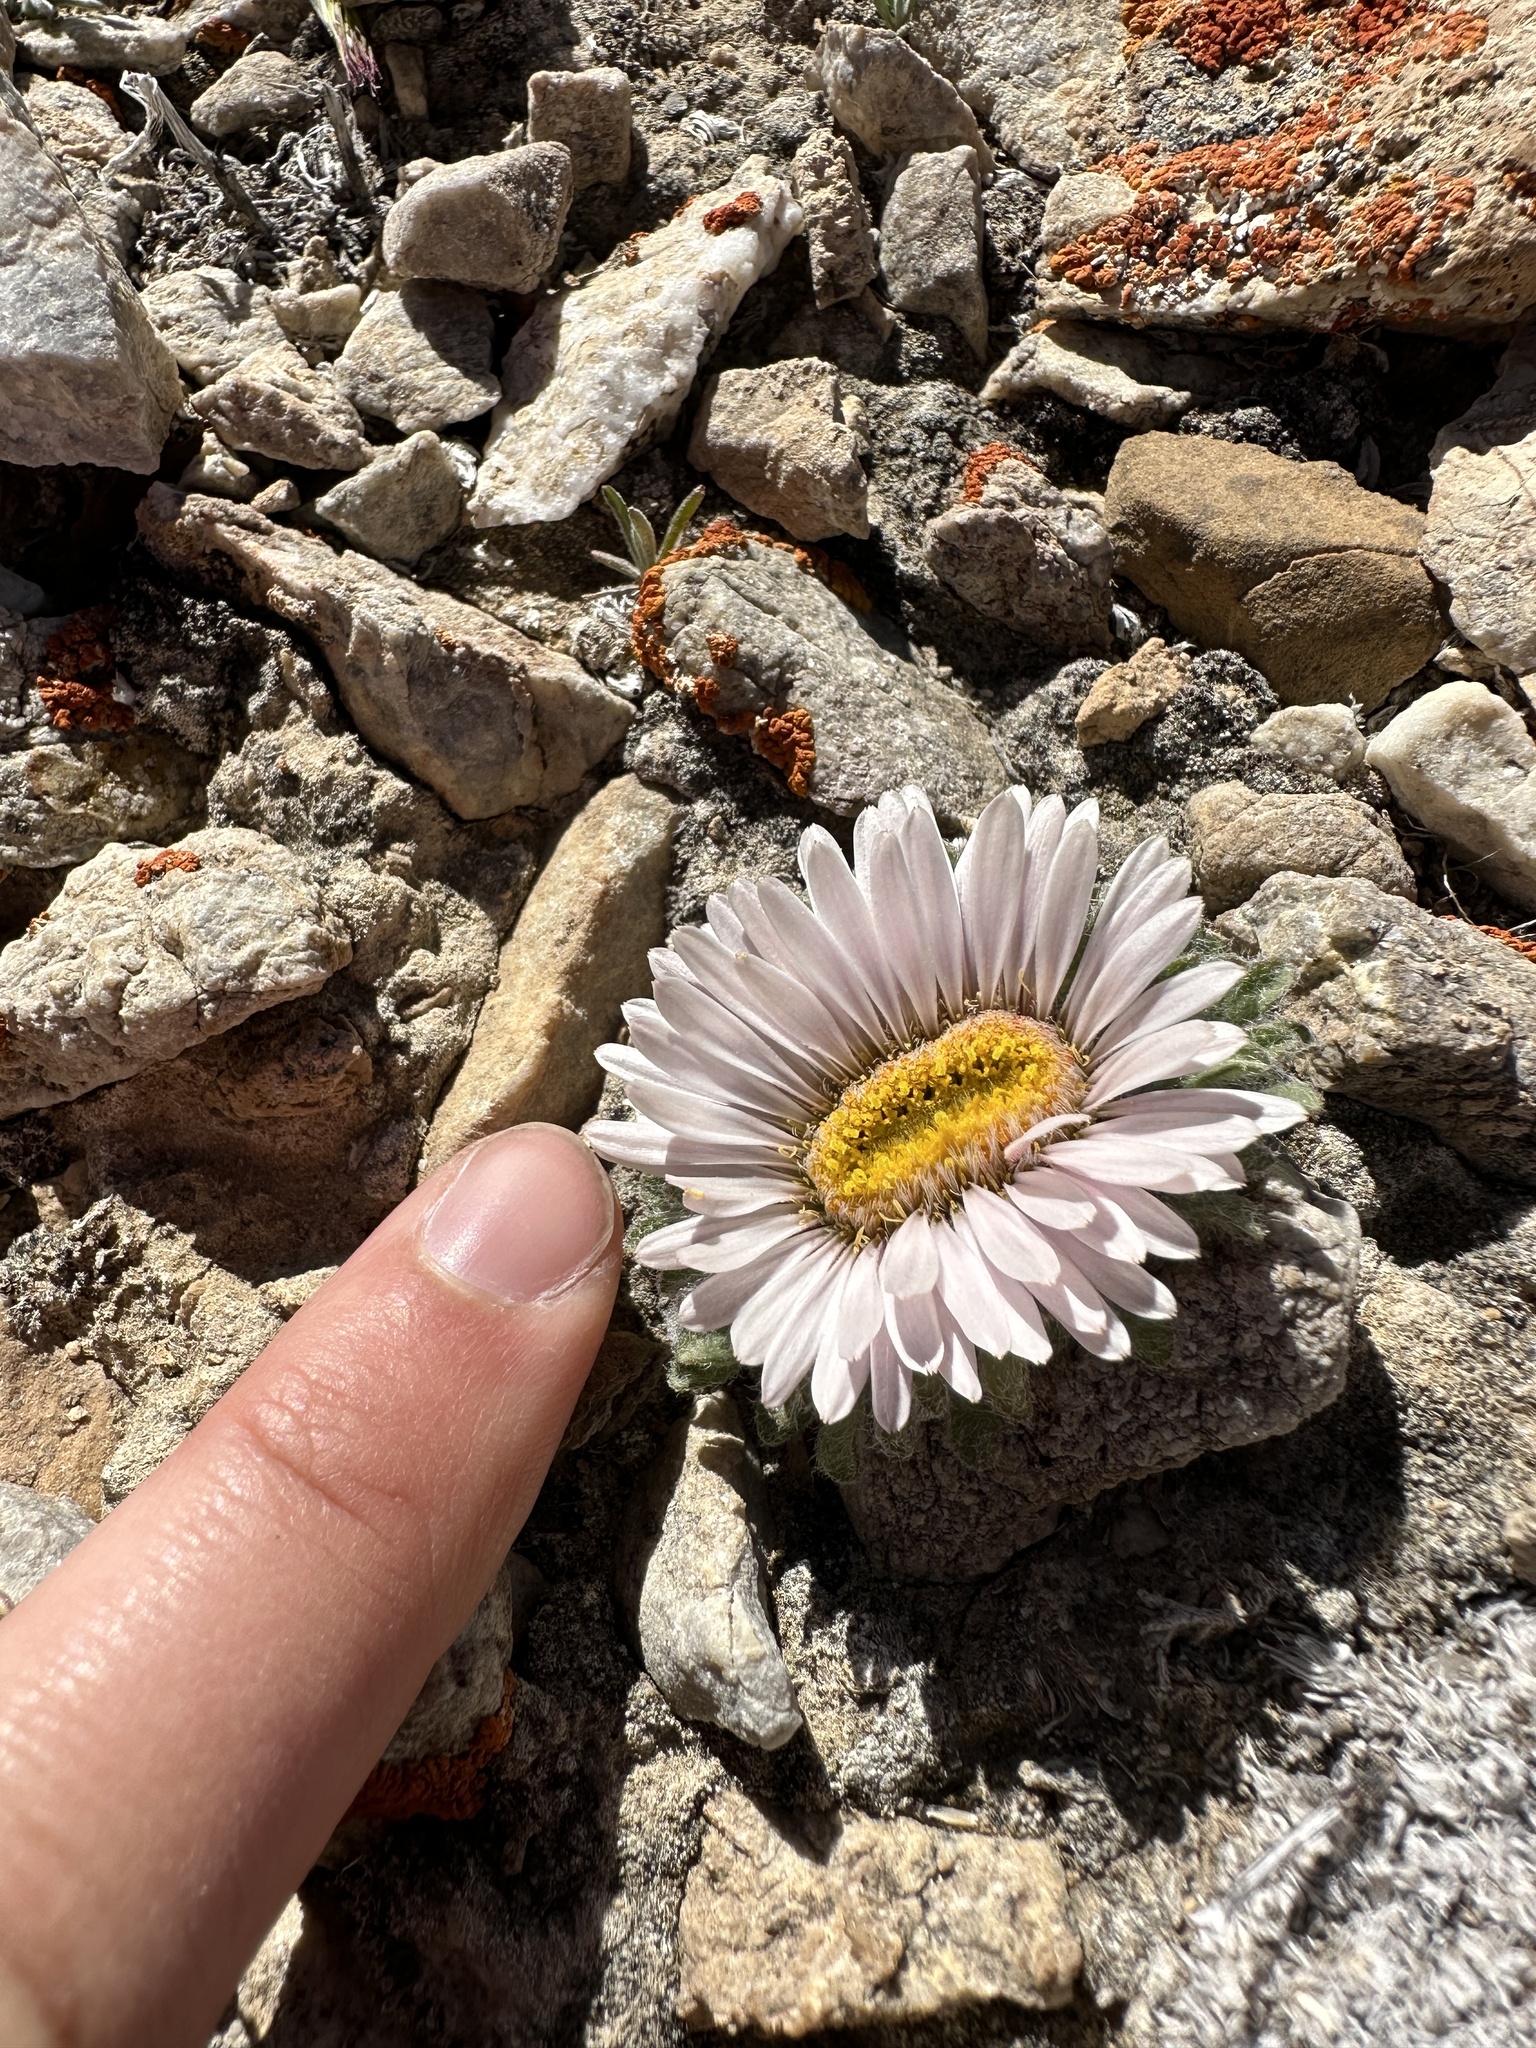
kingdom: Plantae
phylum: Tracheophyta
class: Magnoliopsida
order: Asterales
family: Asteraceae
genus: Townsendia
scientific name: Townsendia condensata
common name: Alpine townsend daisy
